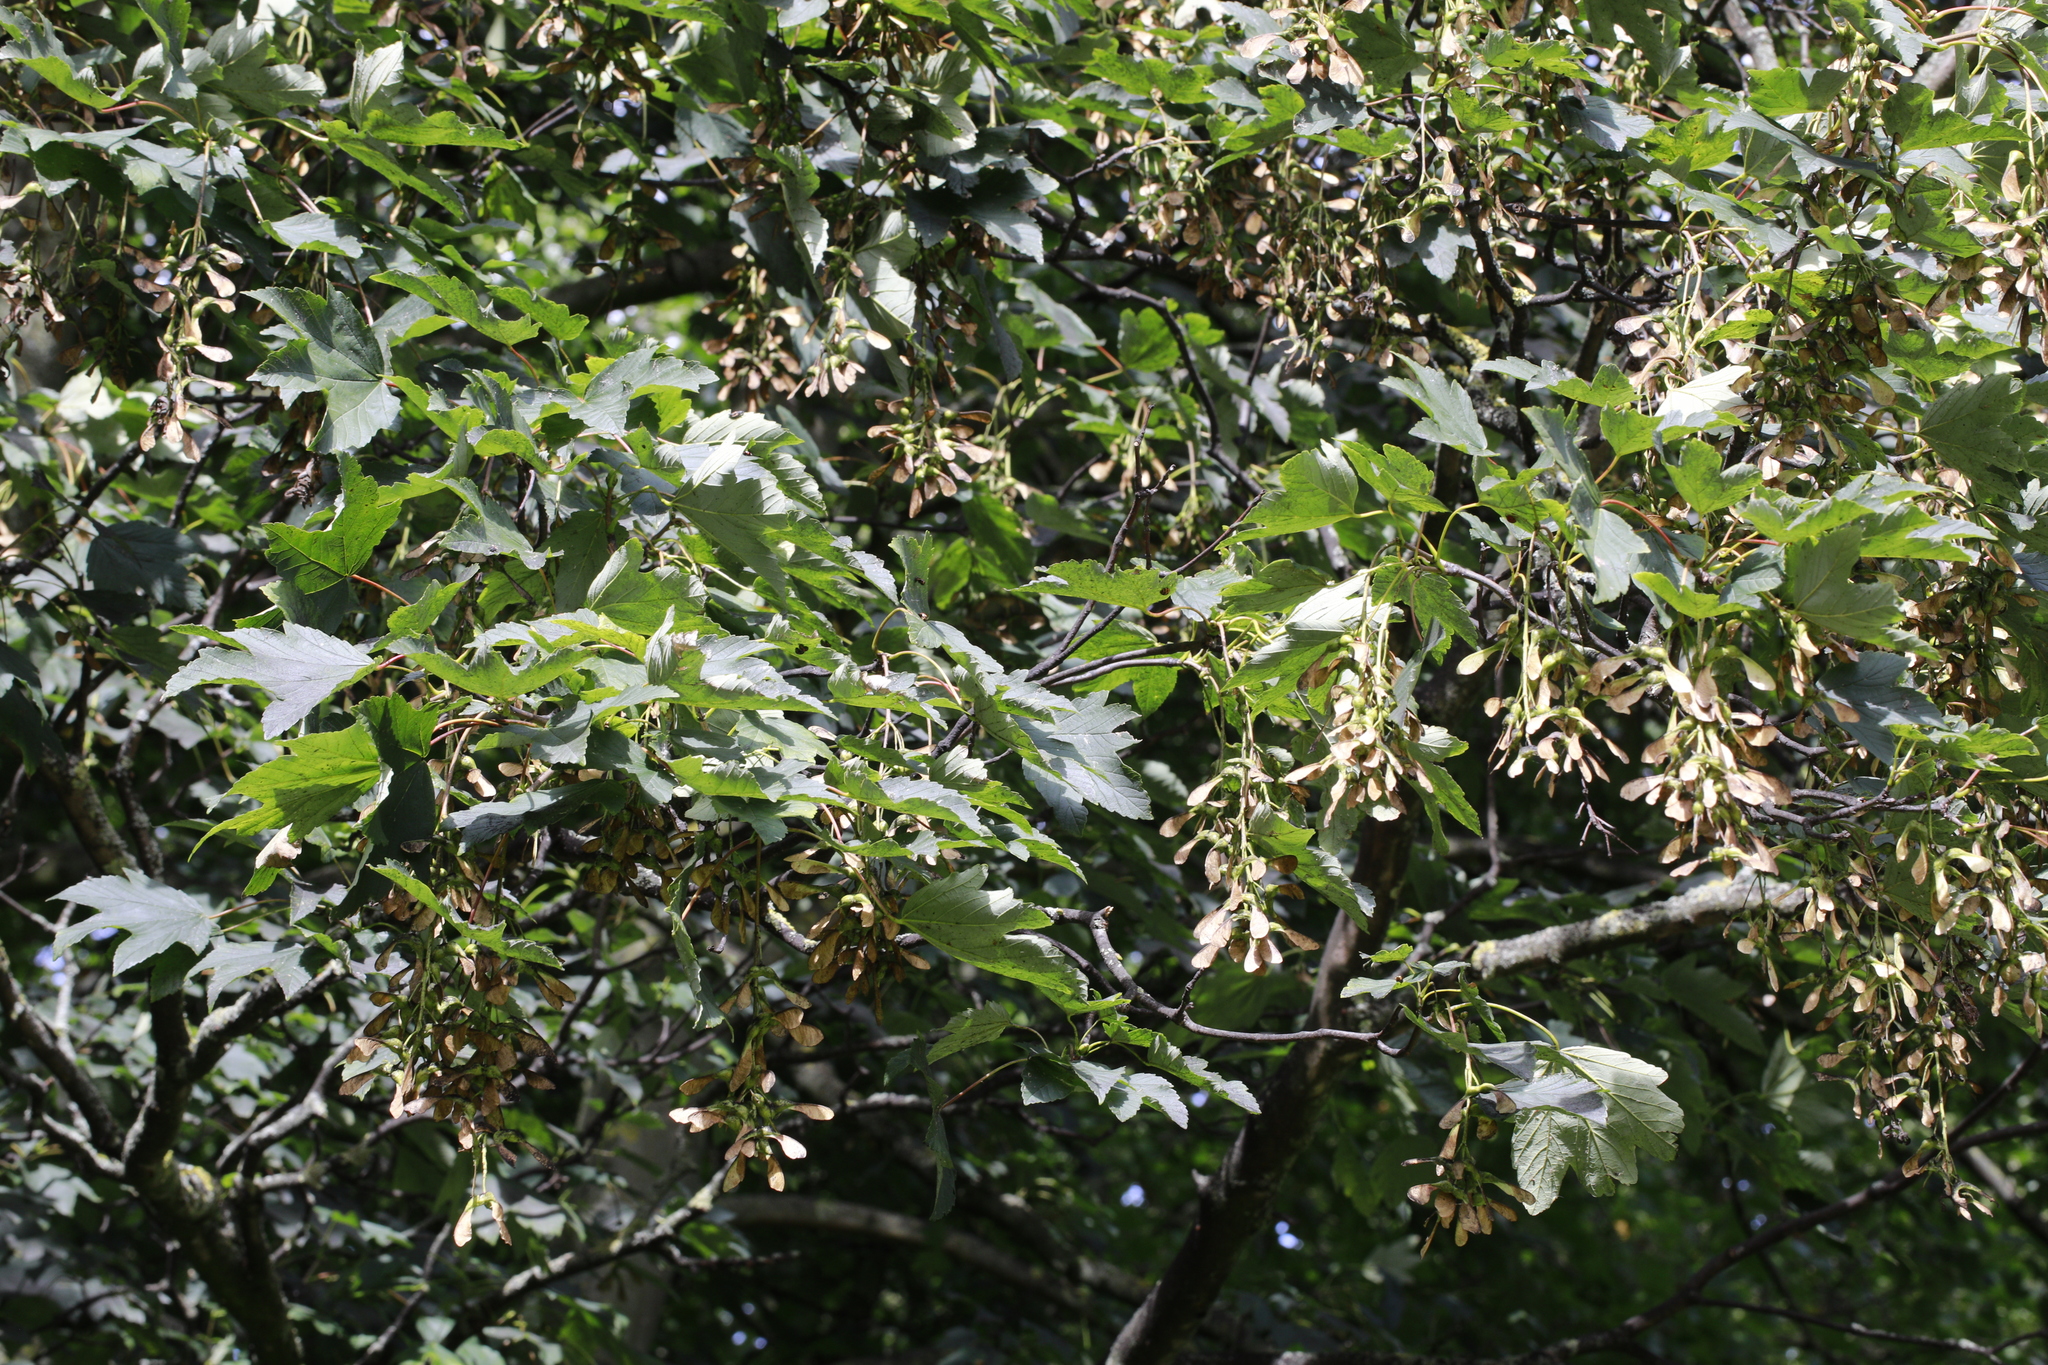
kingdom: Plantae
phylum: Tracheophyta
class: Magnoliopsida
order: Sapindales
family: Sapindaceae
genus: Acer
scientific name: Acer pseudoplatanus
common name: Sycamore
